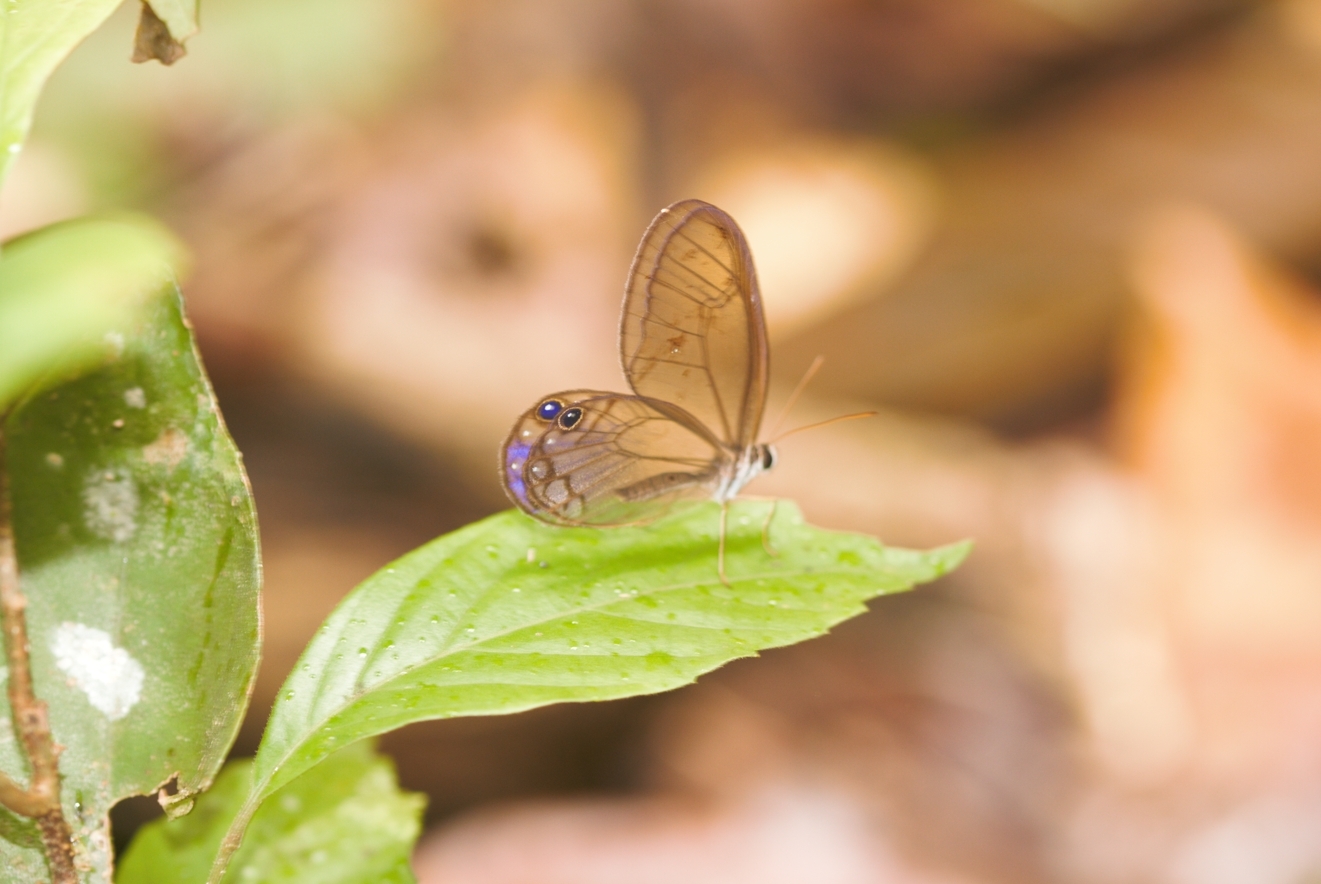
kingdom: Animalia
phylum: Arthropoda
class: Insecta
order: Lepidoptera
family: Nymphalidae
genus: Cithaerias
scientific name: Cithaerias pireta
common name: Rusted clearwing-satyr
